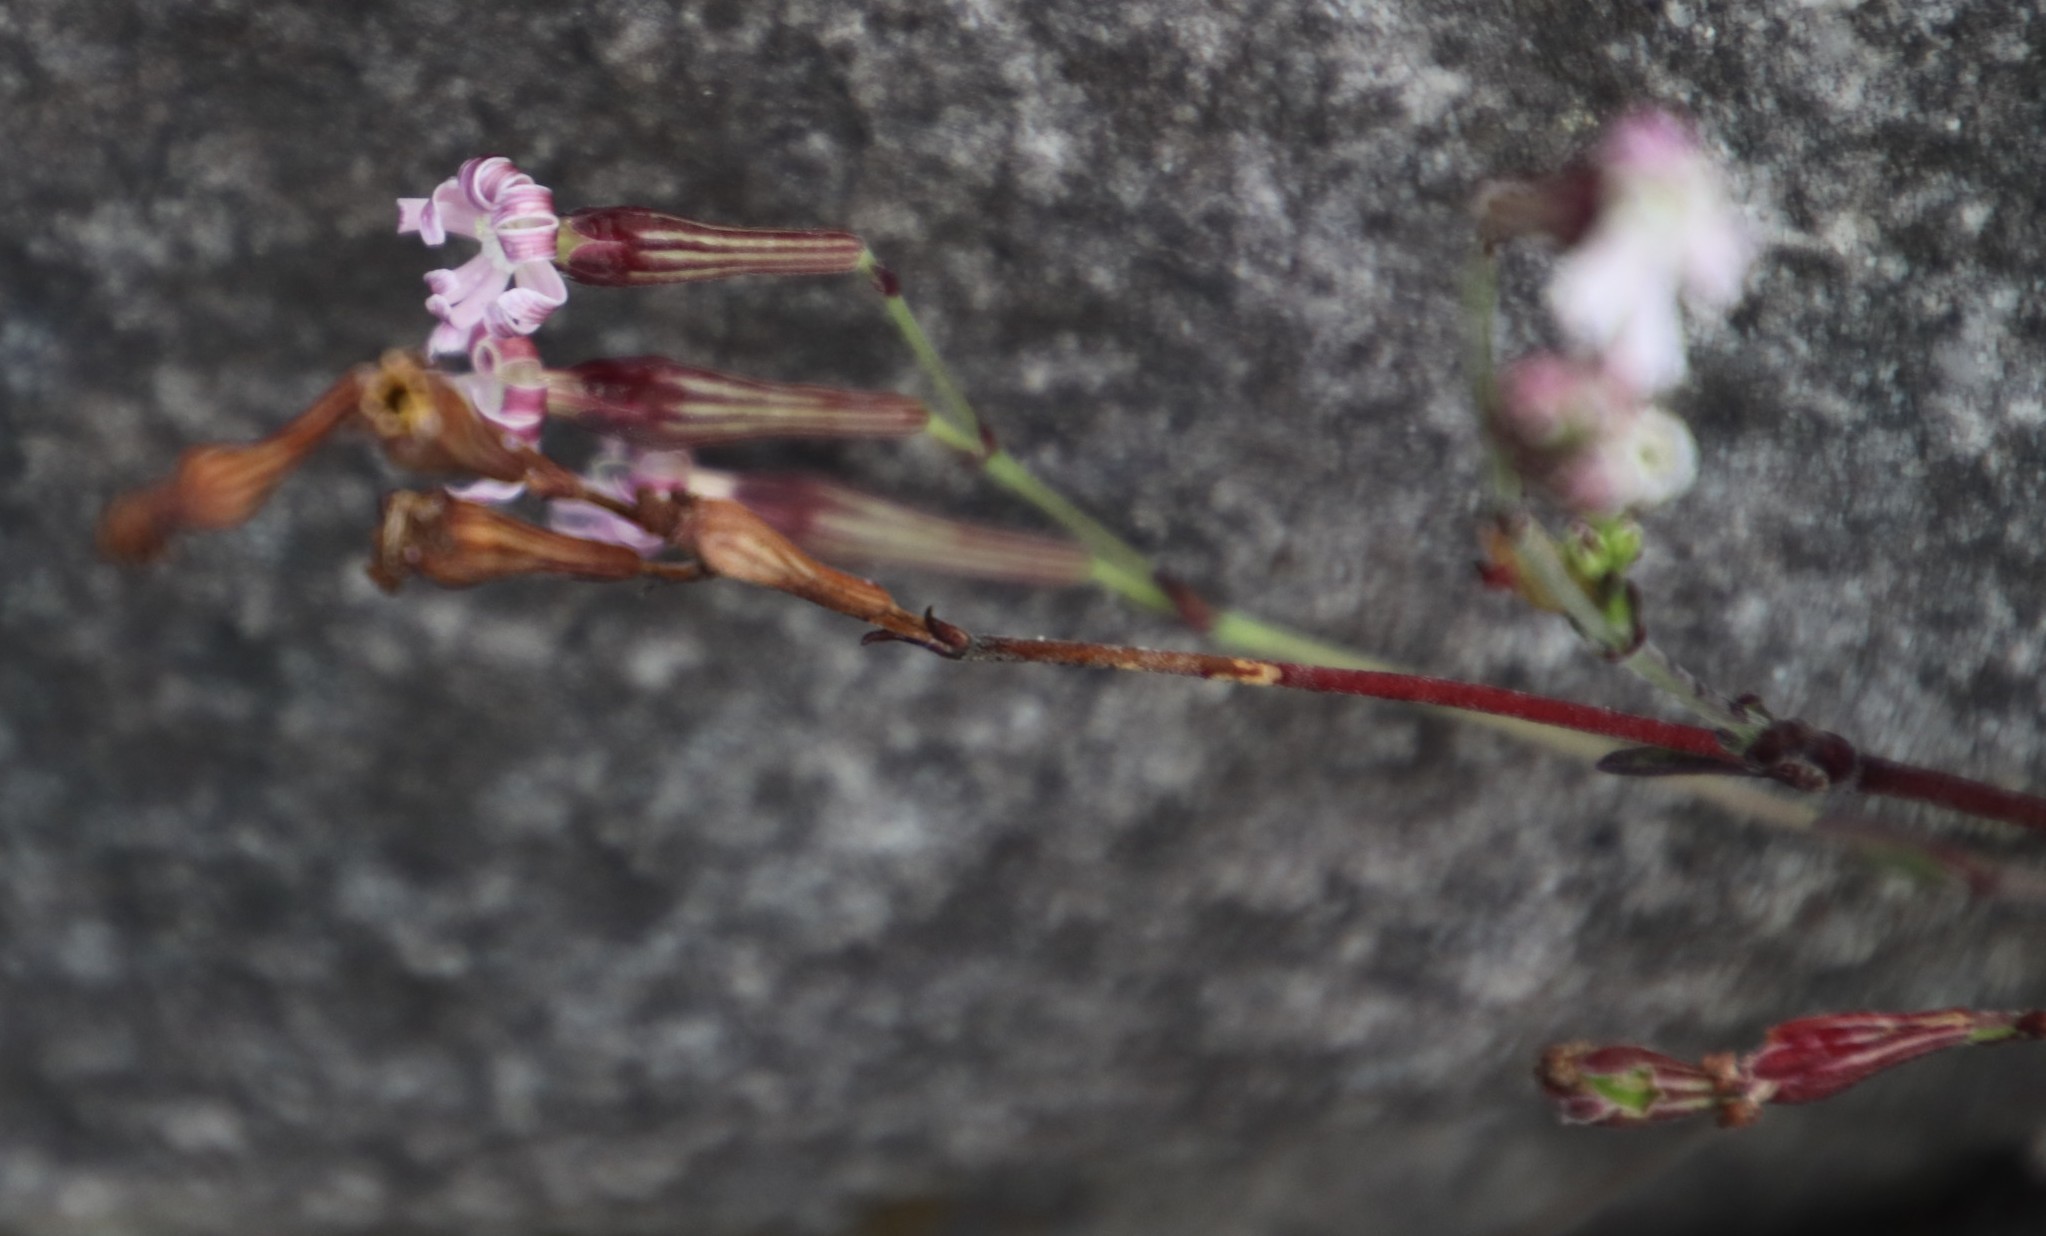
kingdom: Plantae
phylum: Tracheophyta
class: Magnoliopsida
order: Caryophyllales
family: Caryophyllaceae
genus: Silene
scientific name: Silene burchellii
